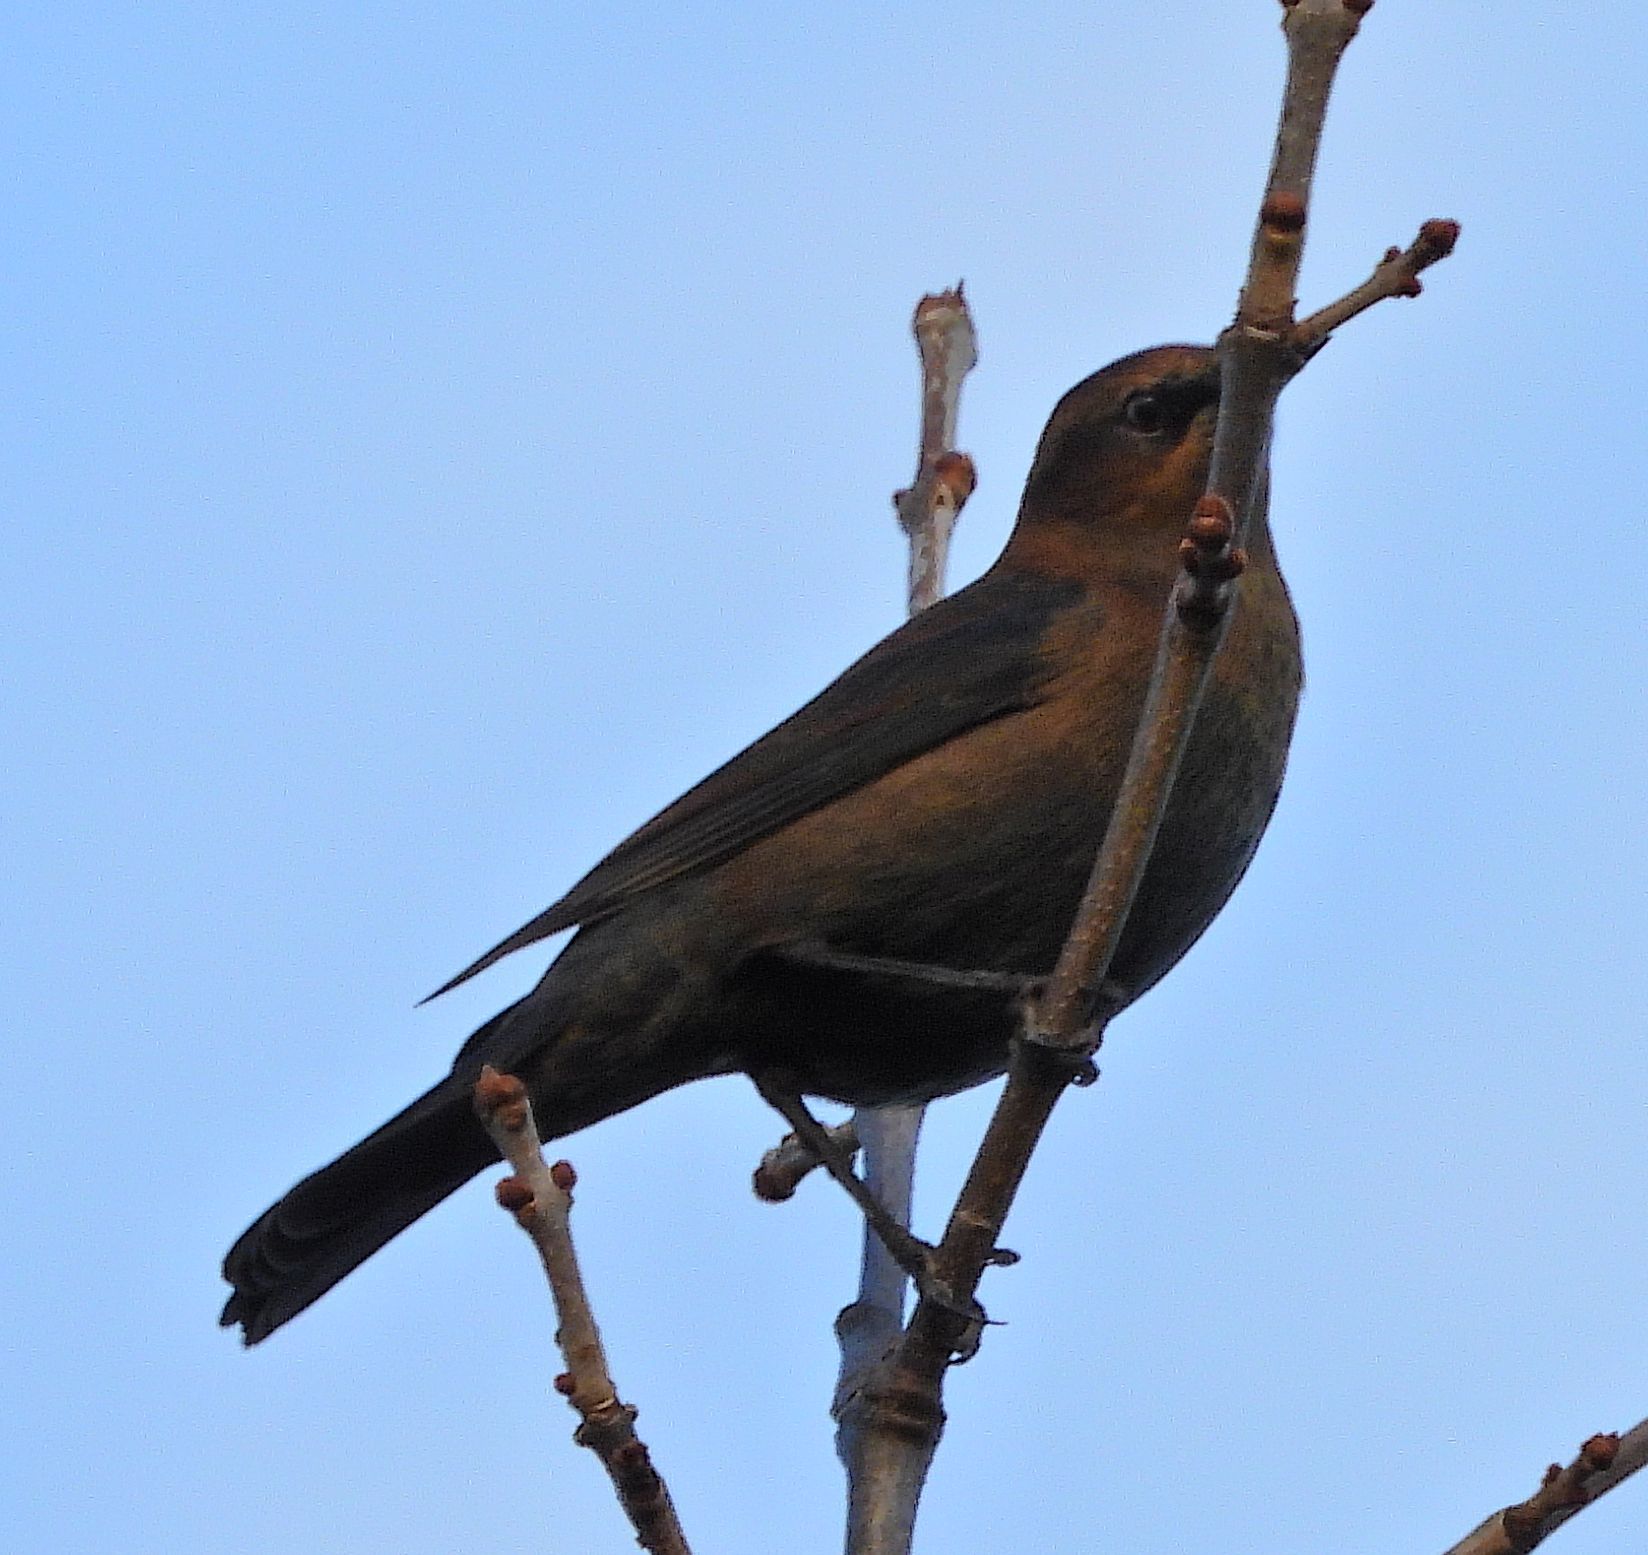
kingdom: Animalia
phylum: Chordata
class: Aves
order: Passeriformes
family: Icteridae
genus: Euphagus
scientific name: Euphagus carolinus
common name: Rusty blackbird
